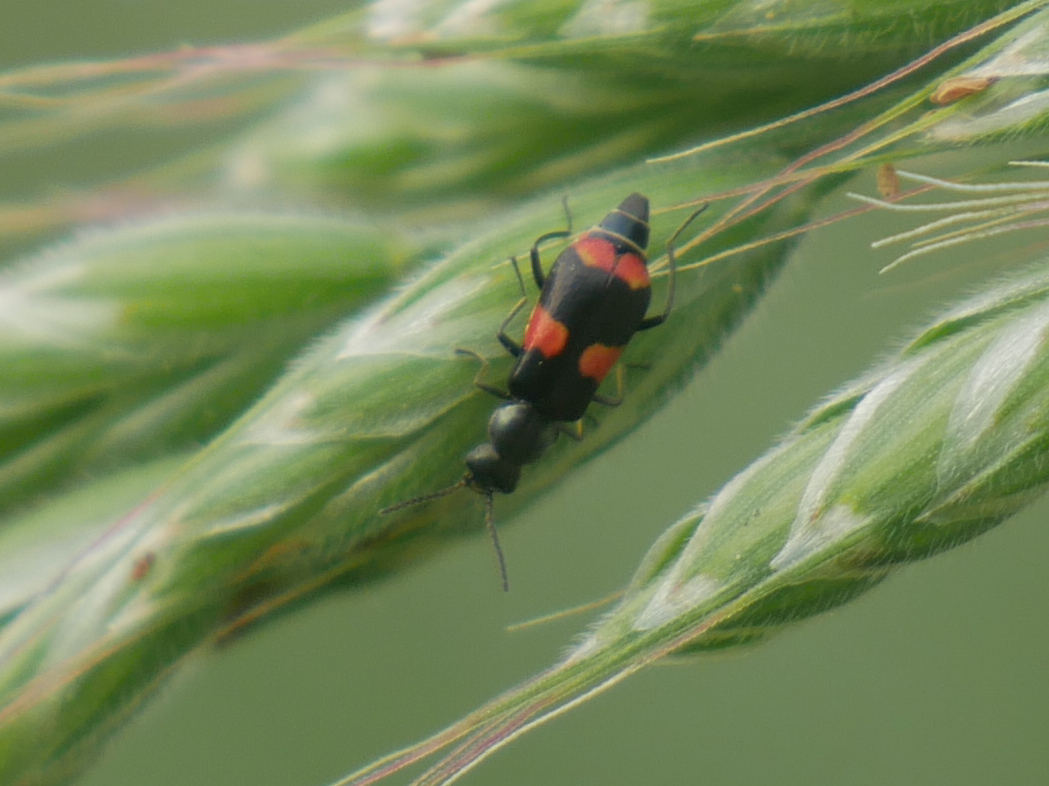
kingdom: Animalia
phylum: Arthropoda
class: Insecta
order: Coleoptera
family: Melyridae
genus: Anthocomus
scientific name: Anthocomus fasciatus
